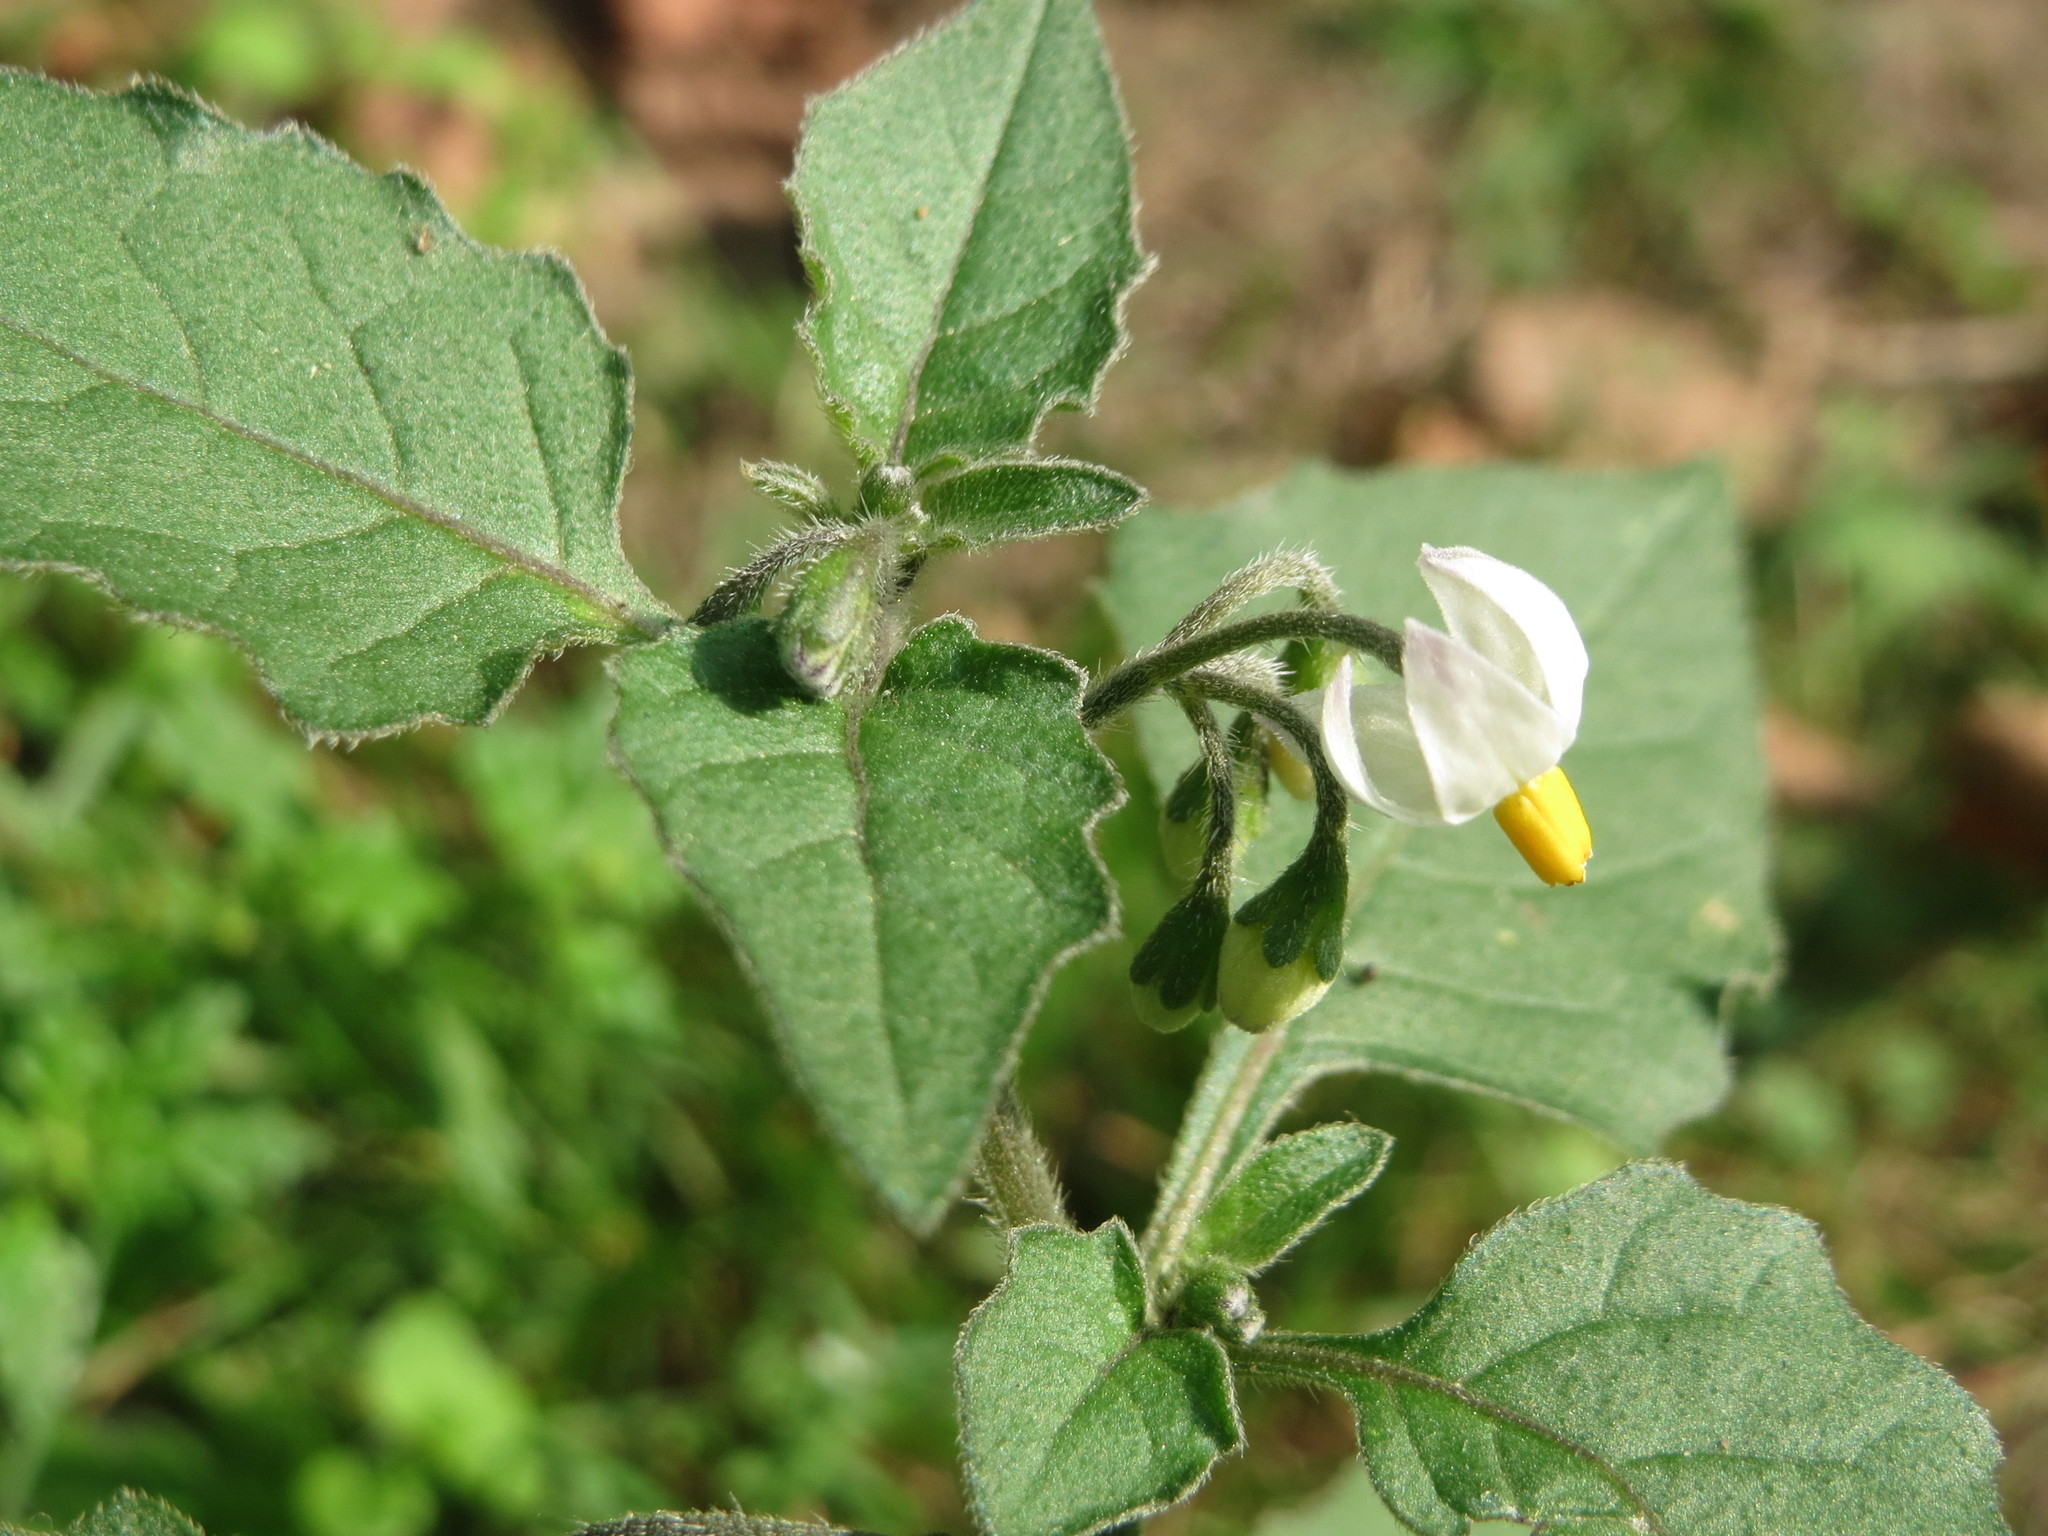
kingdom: Plantae
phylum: Tracheophyta
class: Magnoliopsida
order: Solanales
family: Solanaceae
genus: Solanum
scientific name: Solanum nigrum
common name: Black nightshade
